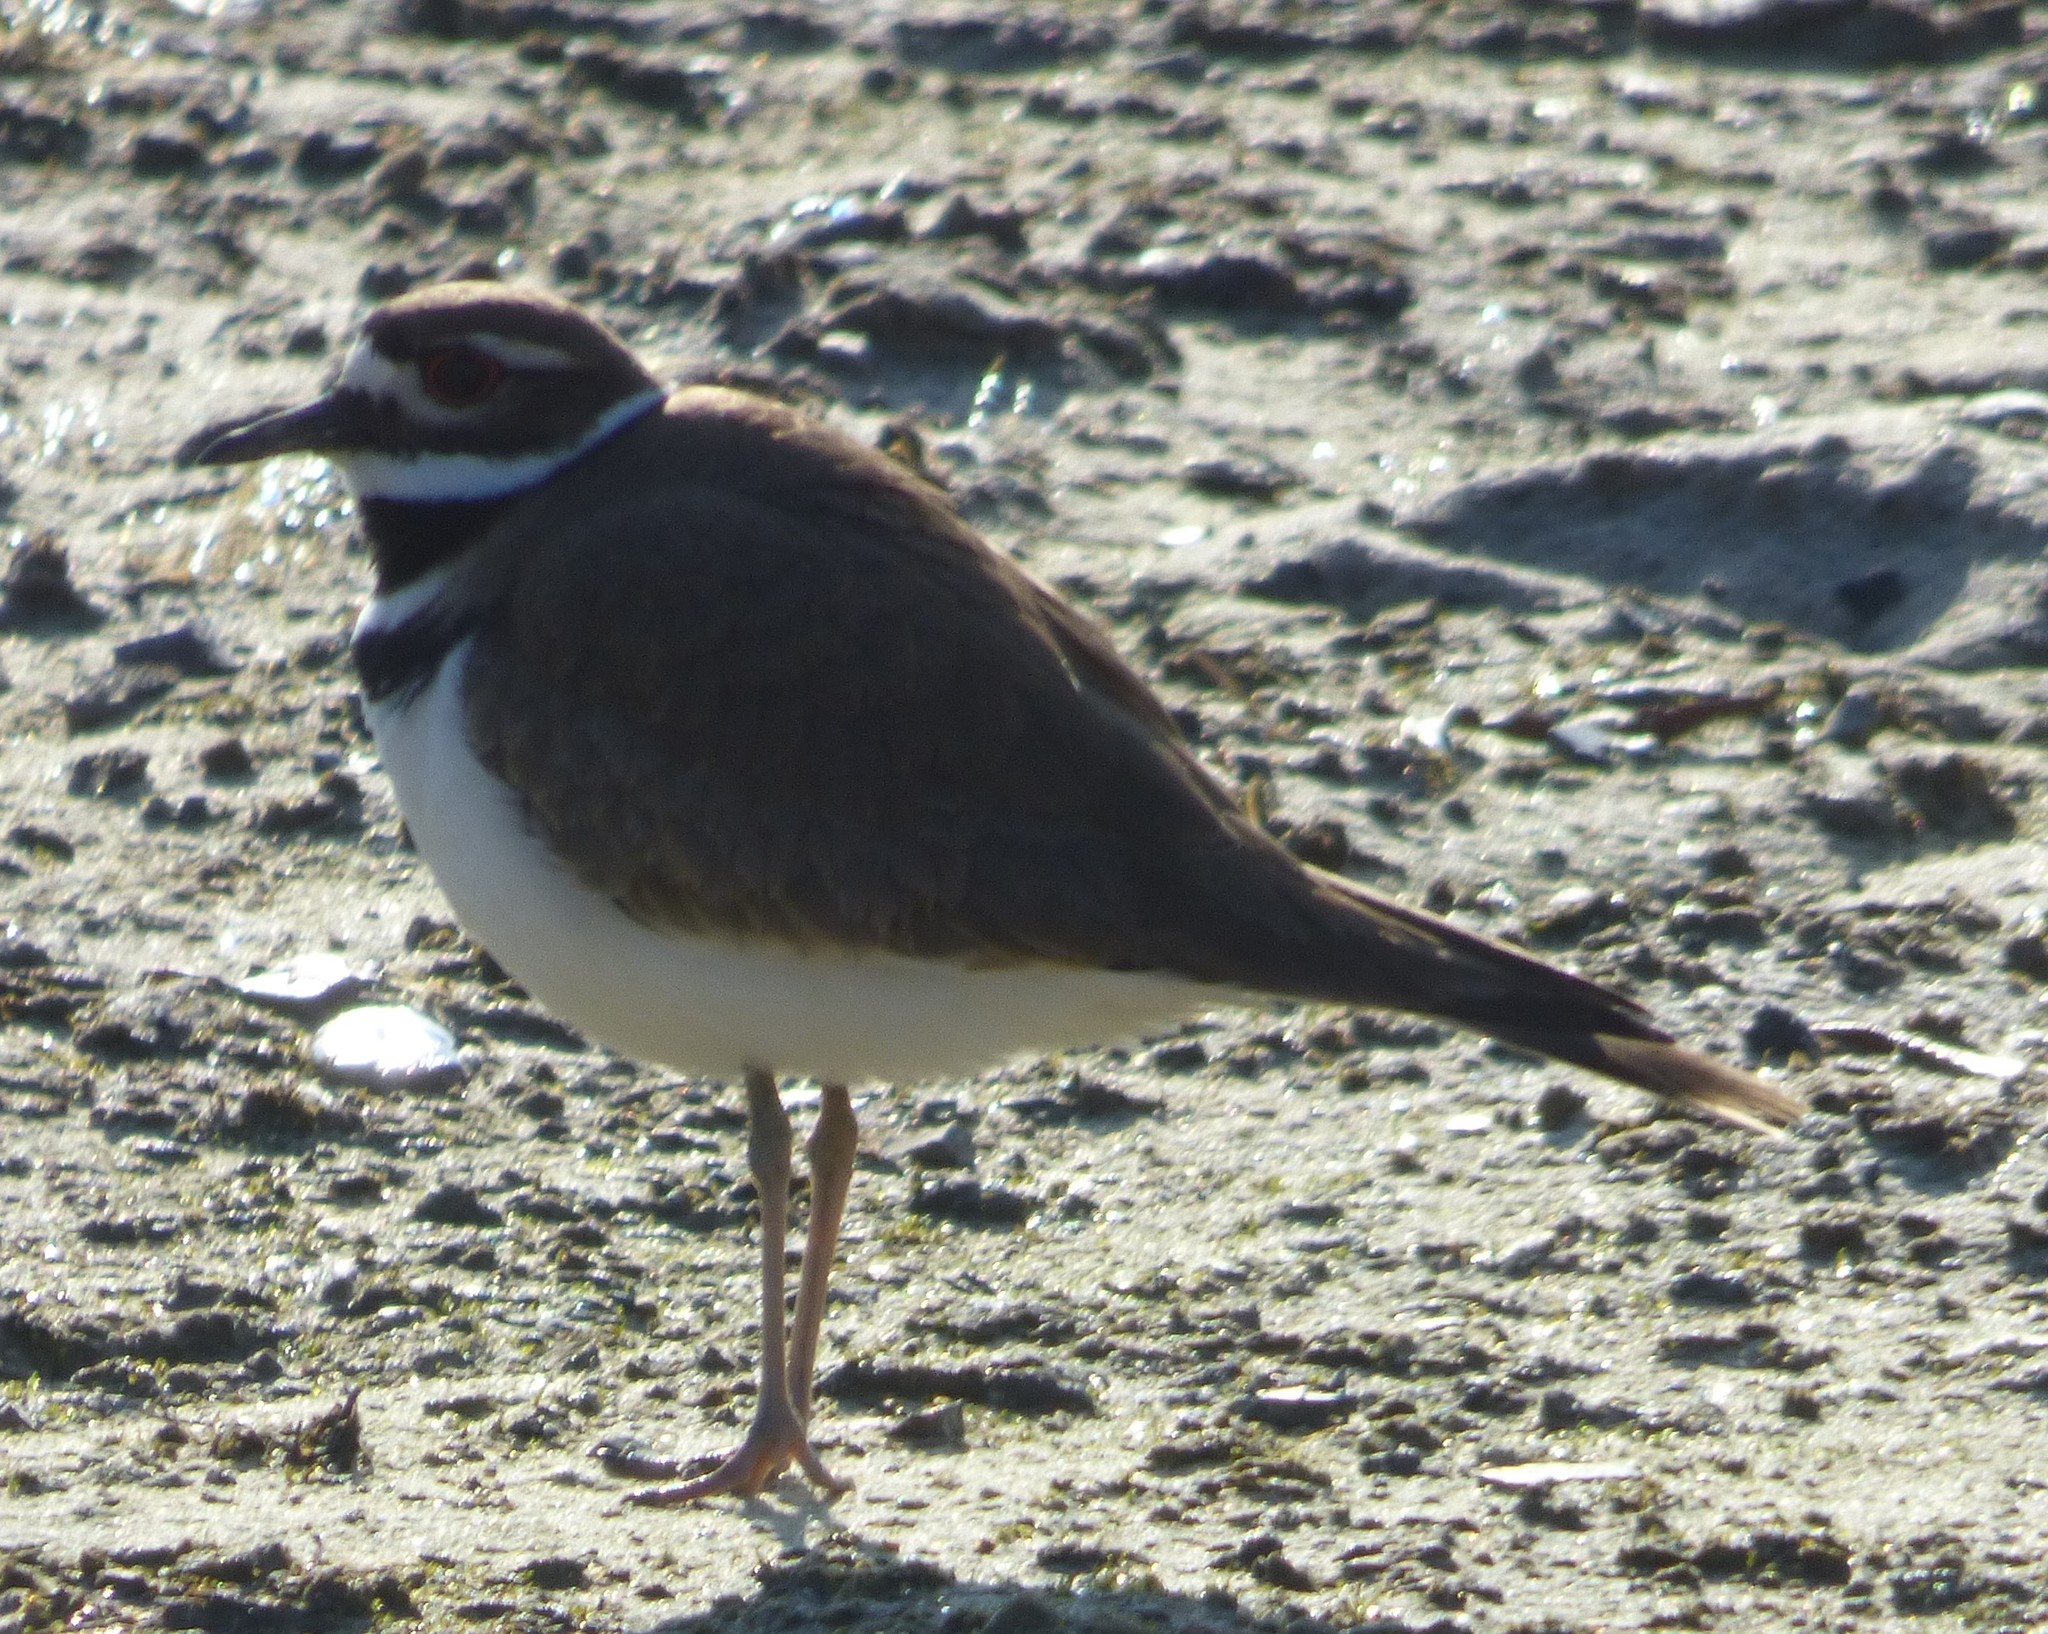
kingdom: Animalia
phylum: Chordata
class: Aves
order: Charadriiformes
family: Charadriidae
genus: Charadrius
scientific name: Charadrius vociferus
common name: Killdeer
